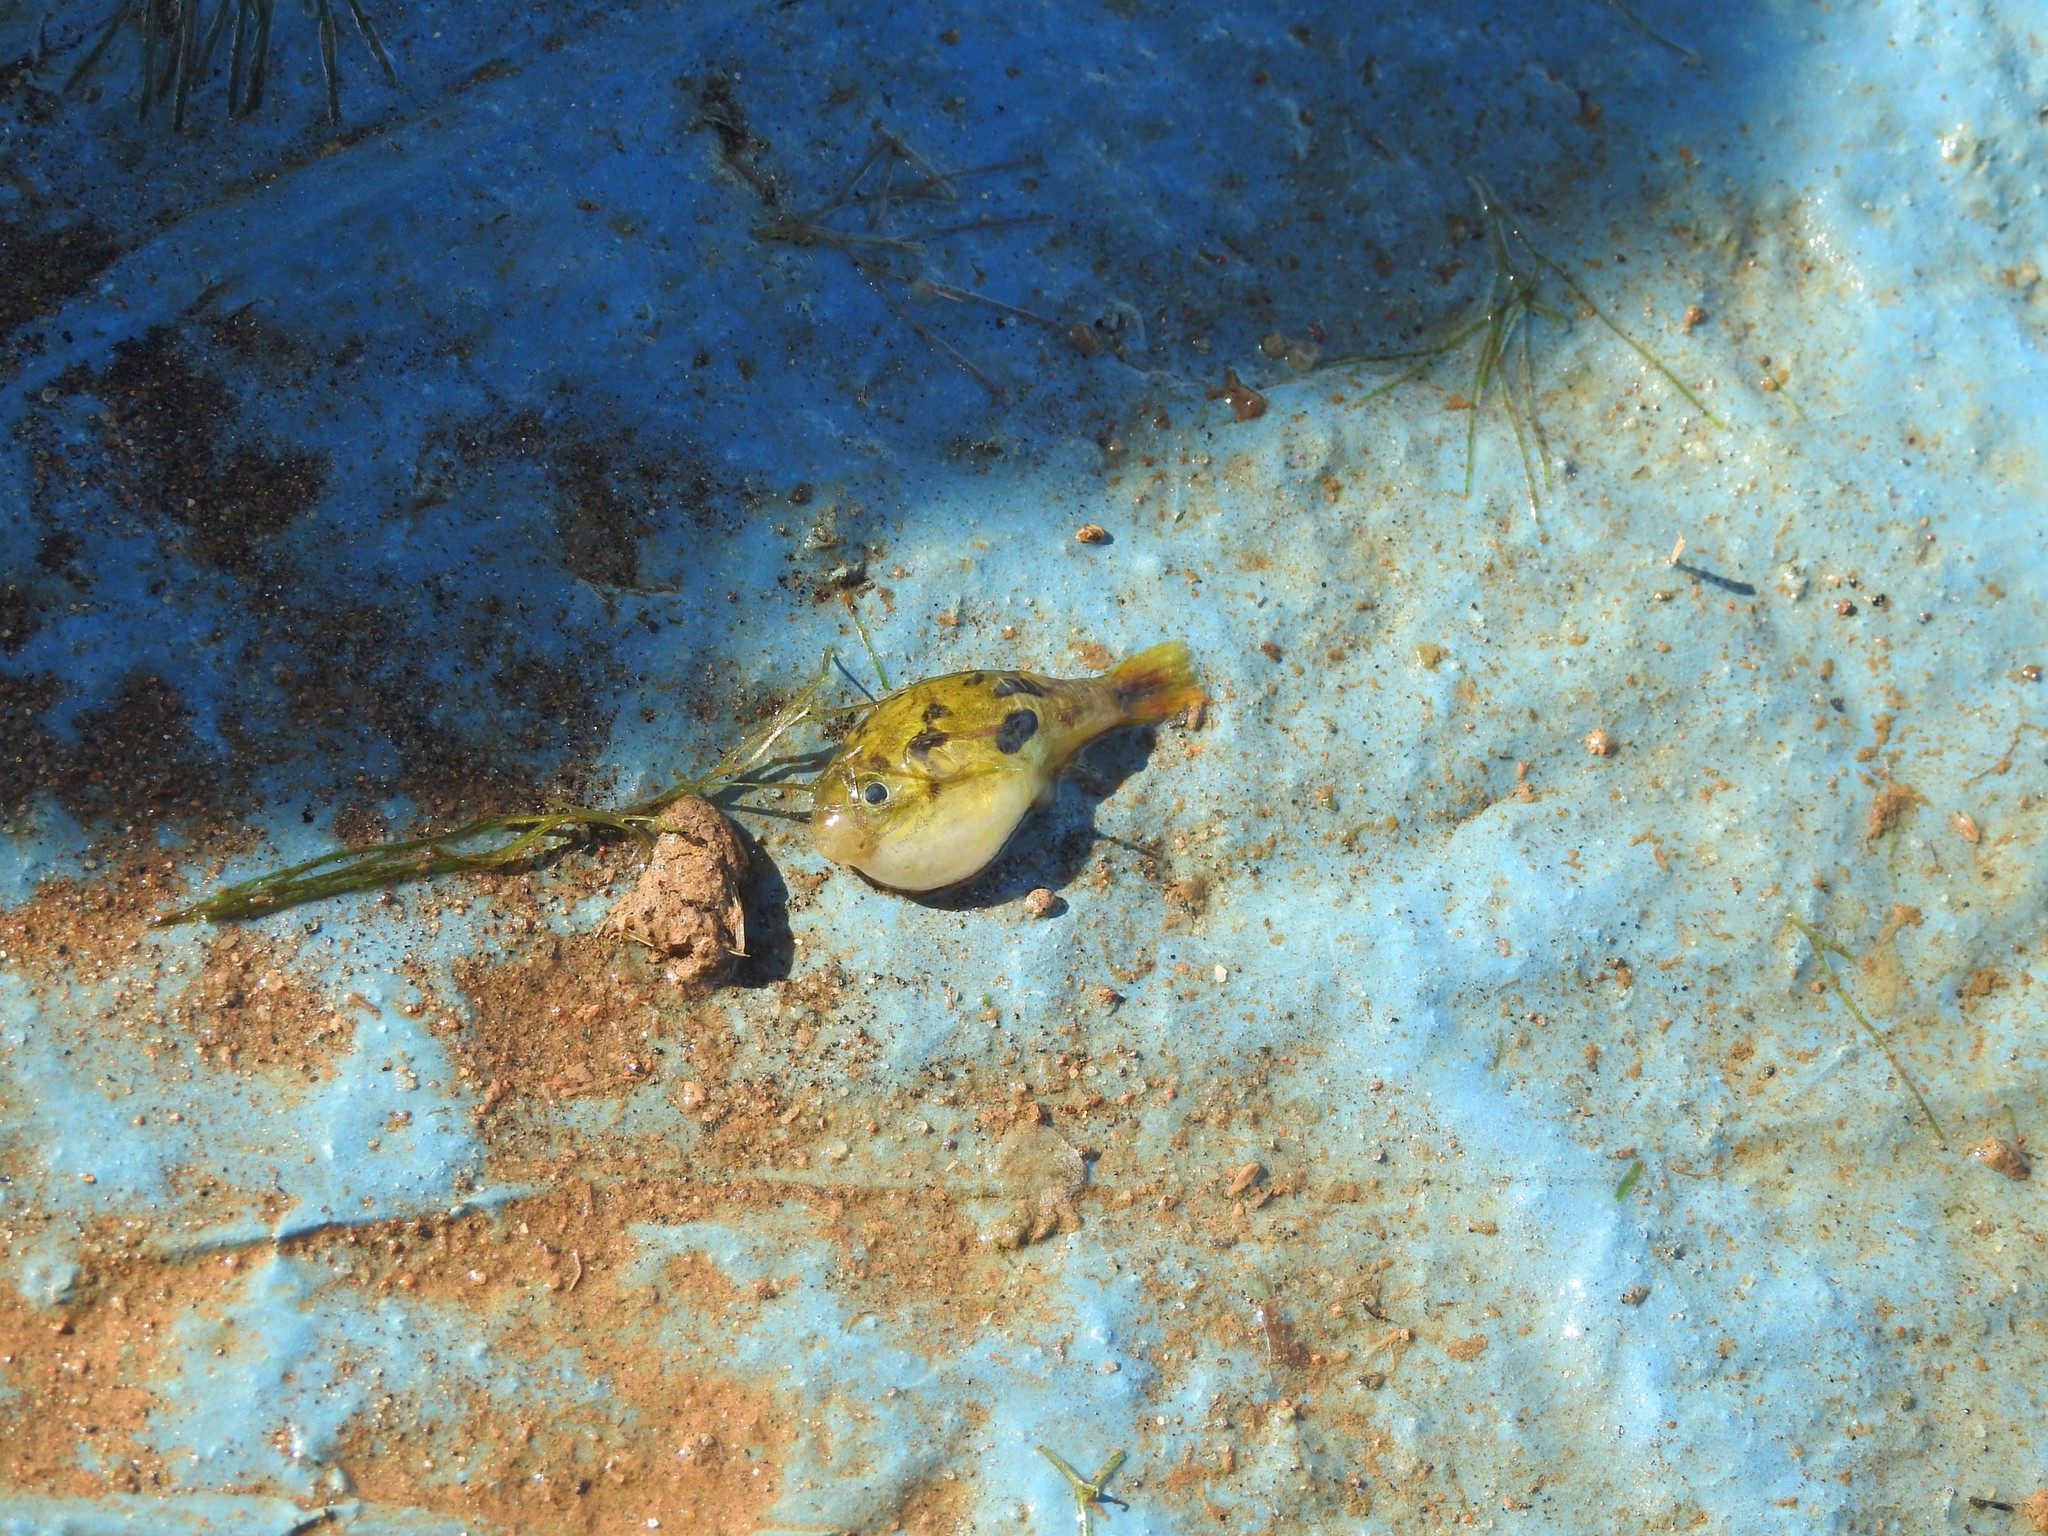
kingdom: Animalia
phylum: Chordata
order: Tetraodontiformes
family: Tetraodontidae
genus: Carinotetraodon
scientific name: Carinotetraodon travancoricus
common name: Dwarf indian puffer
